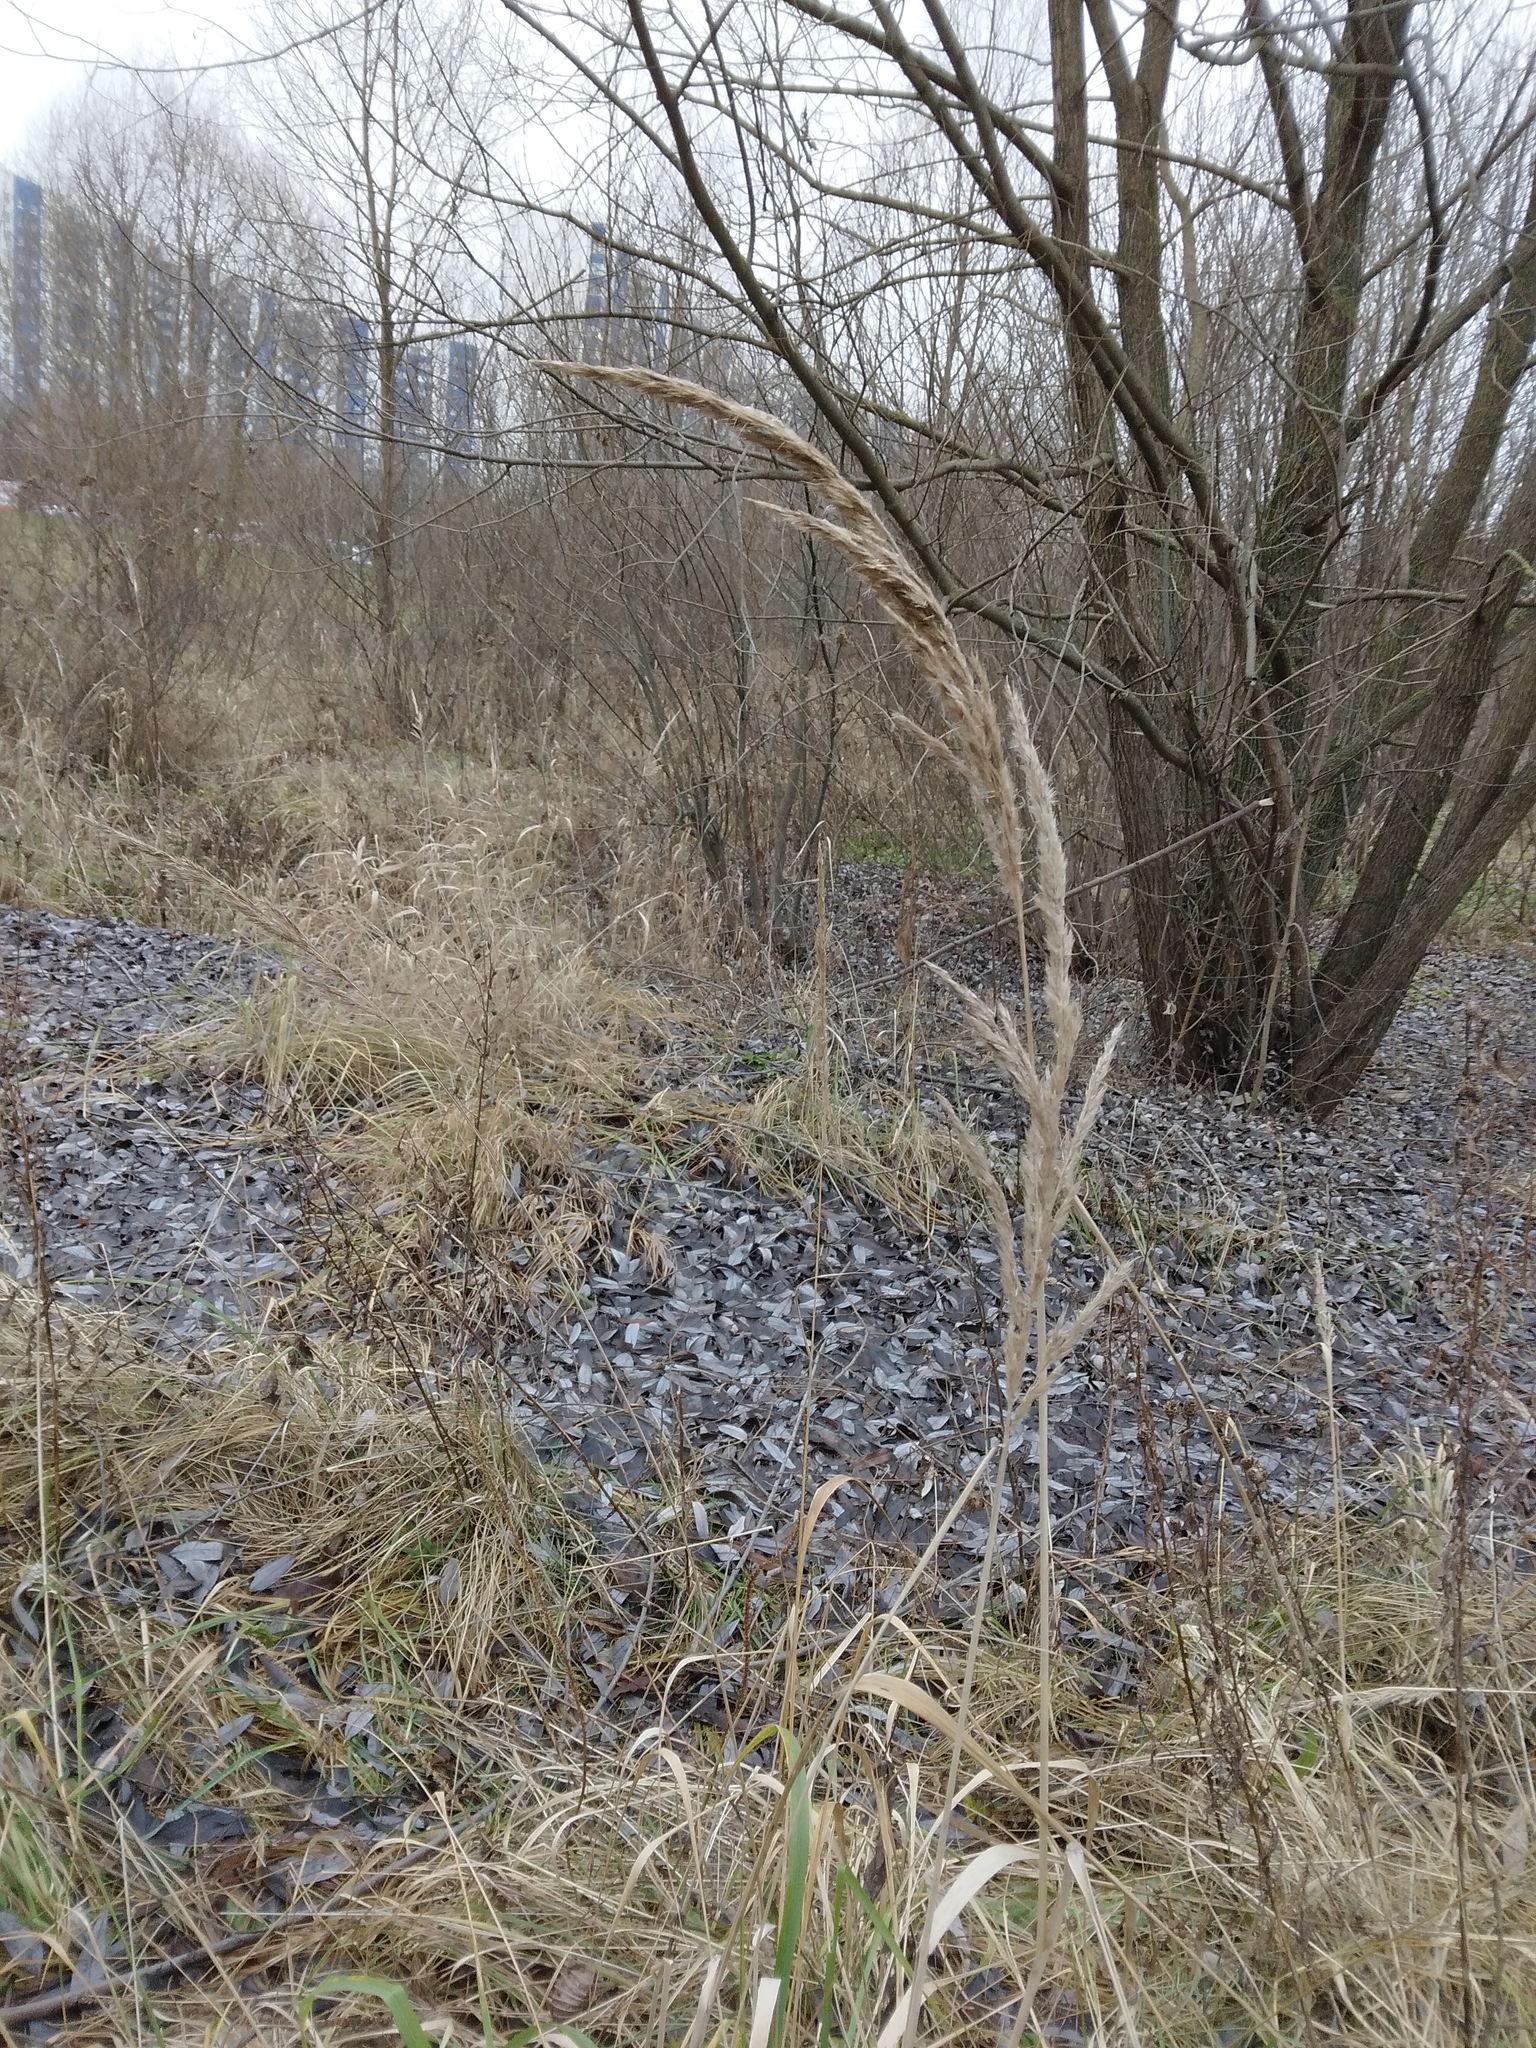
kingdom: Plantae
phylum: Tracheophyta
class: Liliopsida
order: Poales
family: Poaceae
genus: Calamagrostis
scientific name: Calamagrostis epigejos
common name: Wood small-reed
